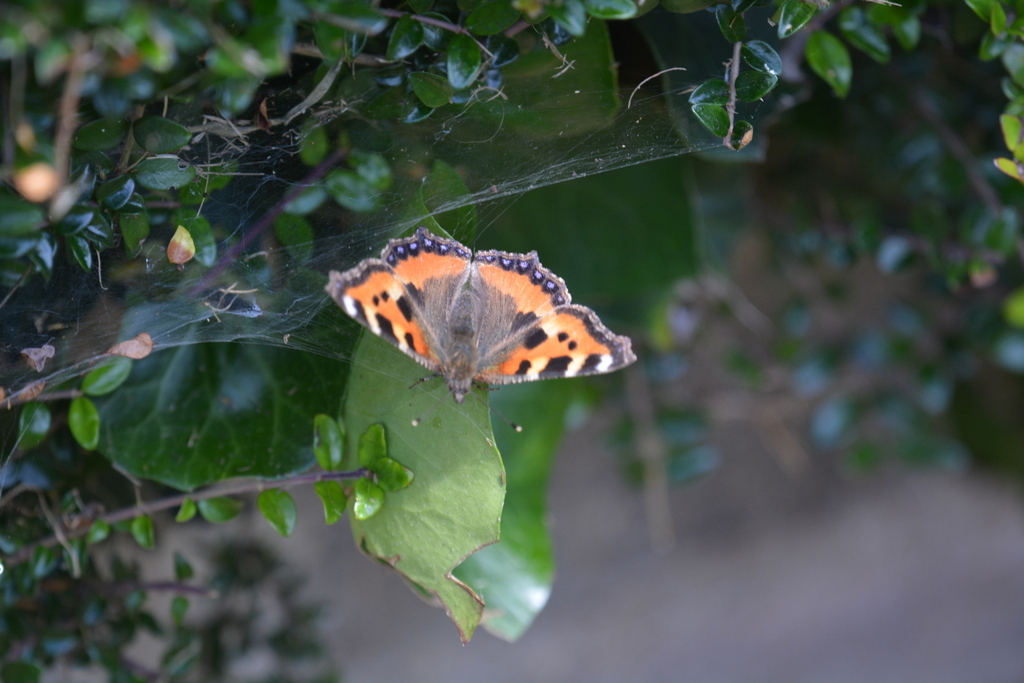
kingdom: Animalia
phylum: Arthropoda
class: Insecta
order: Lepidoptera
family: Nymphalidae
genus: Aglais
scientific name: Aglais urticae
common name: Small tortoiseshell
